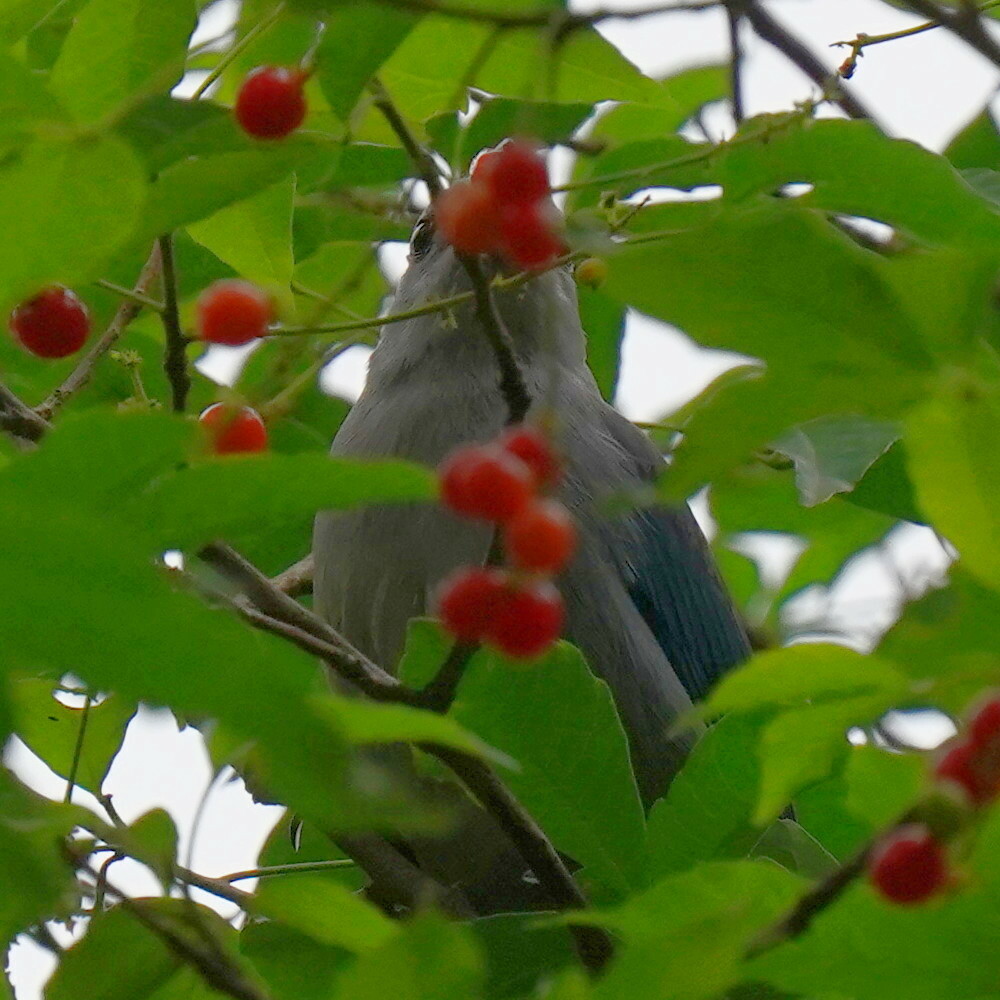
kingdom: Animalia
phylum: Chordata
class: Aves
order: Passeriformes
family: Thraupidae
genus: Thraupis
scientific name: Thraupis sayaca
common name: Sayaca tanager
